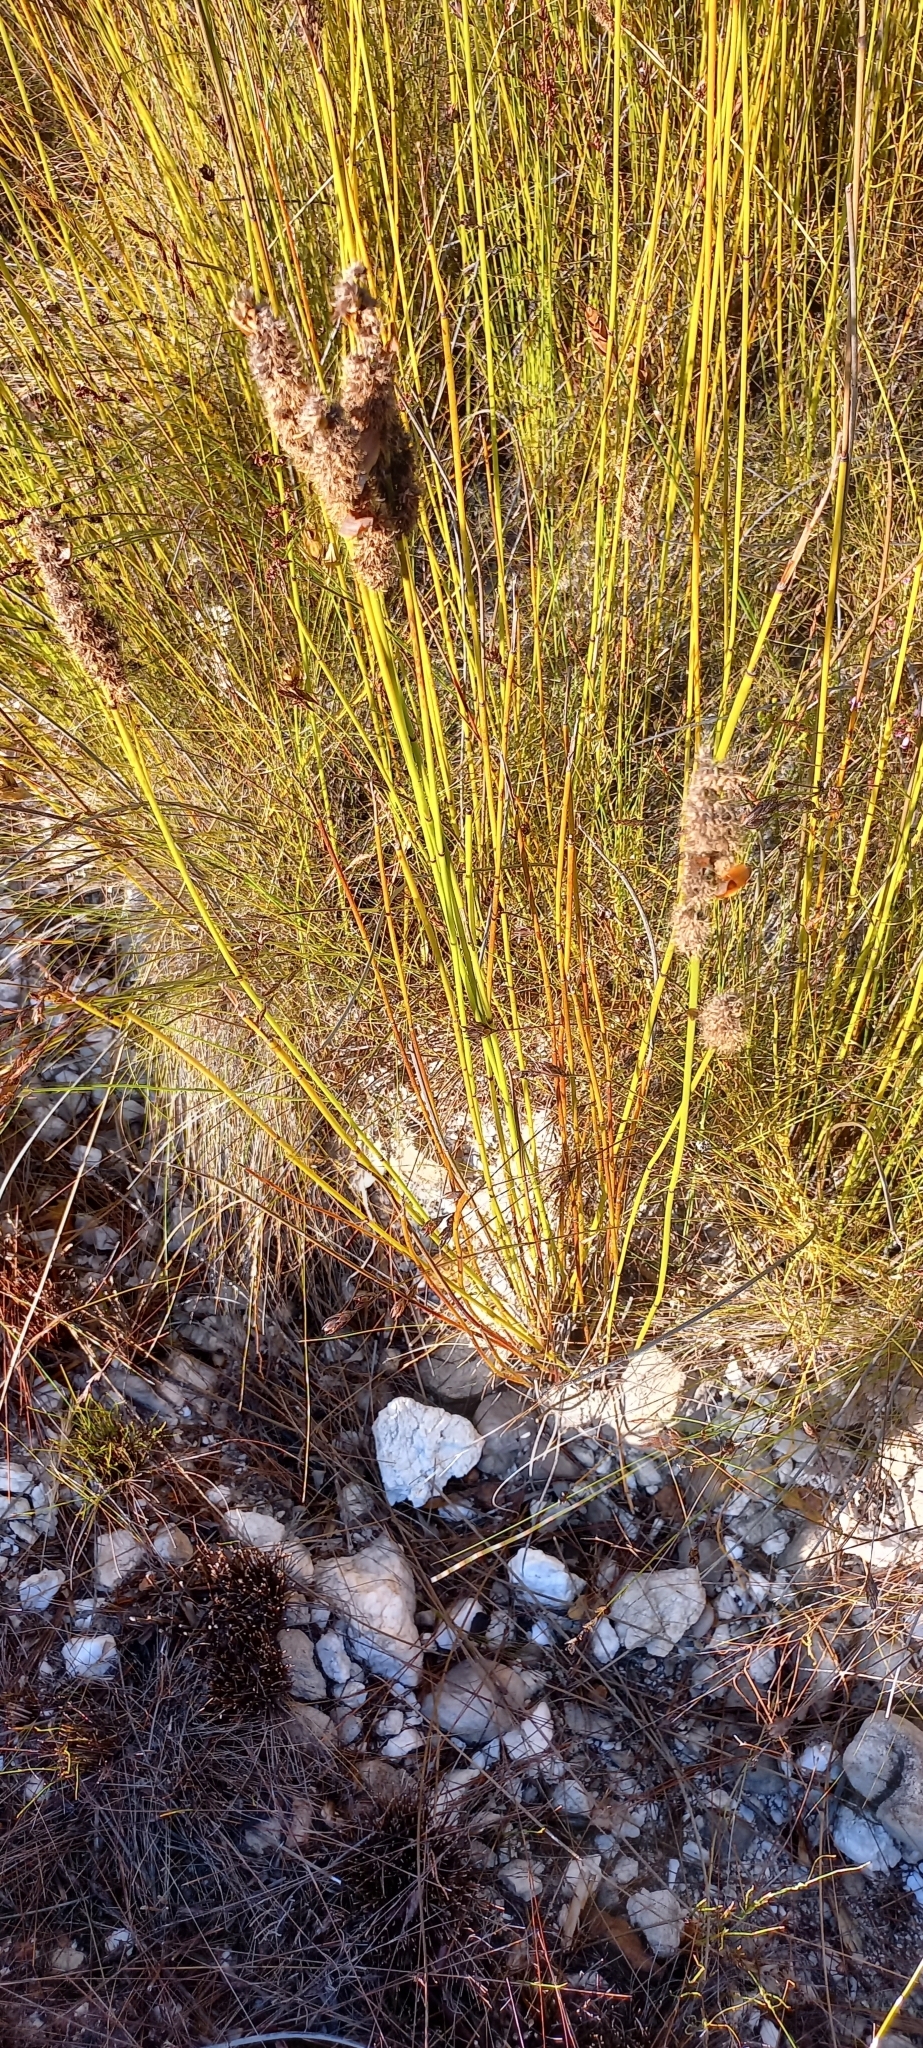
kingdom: Plantae
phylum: Tracheophyta
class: Liliopsida
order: Poales
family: Restionaceae
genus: Elegia
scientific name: Elegia cuspidata
